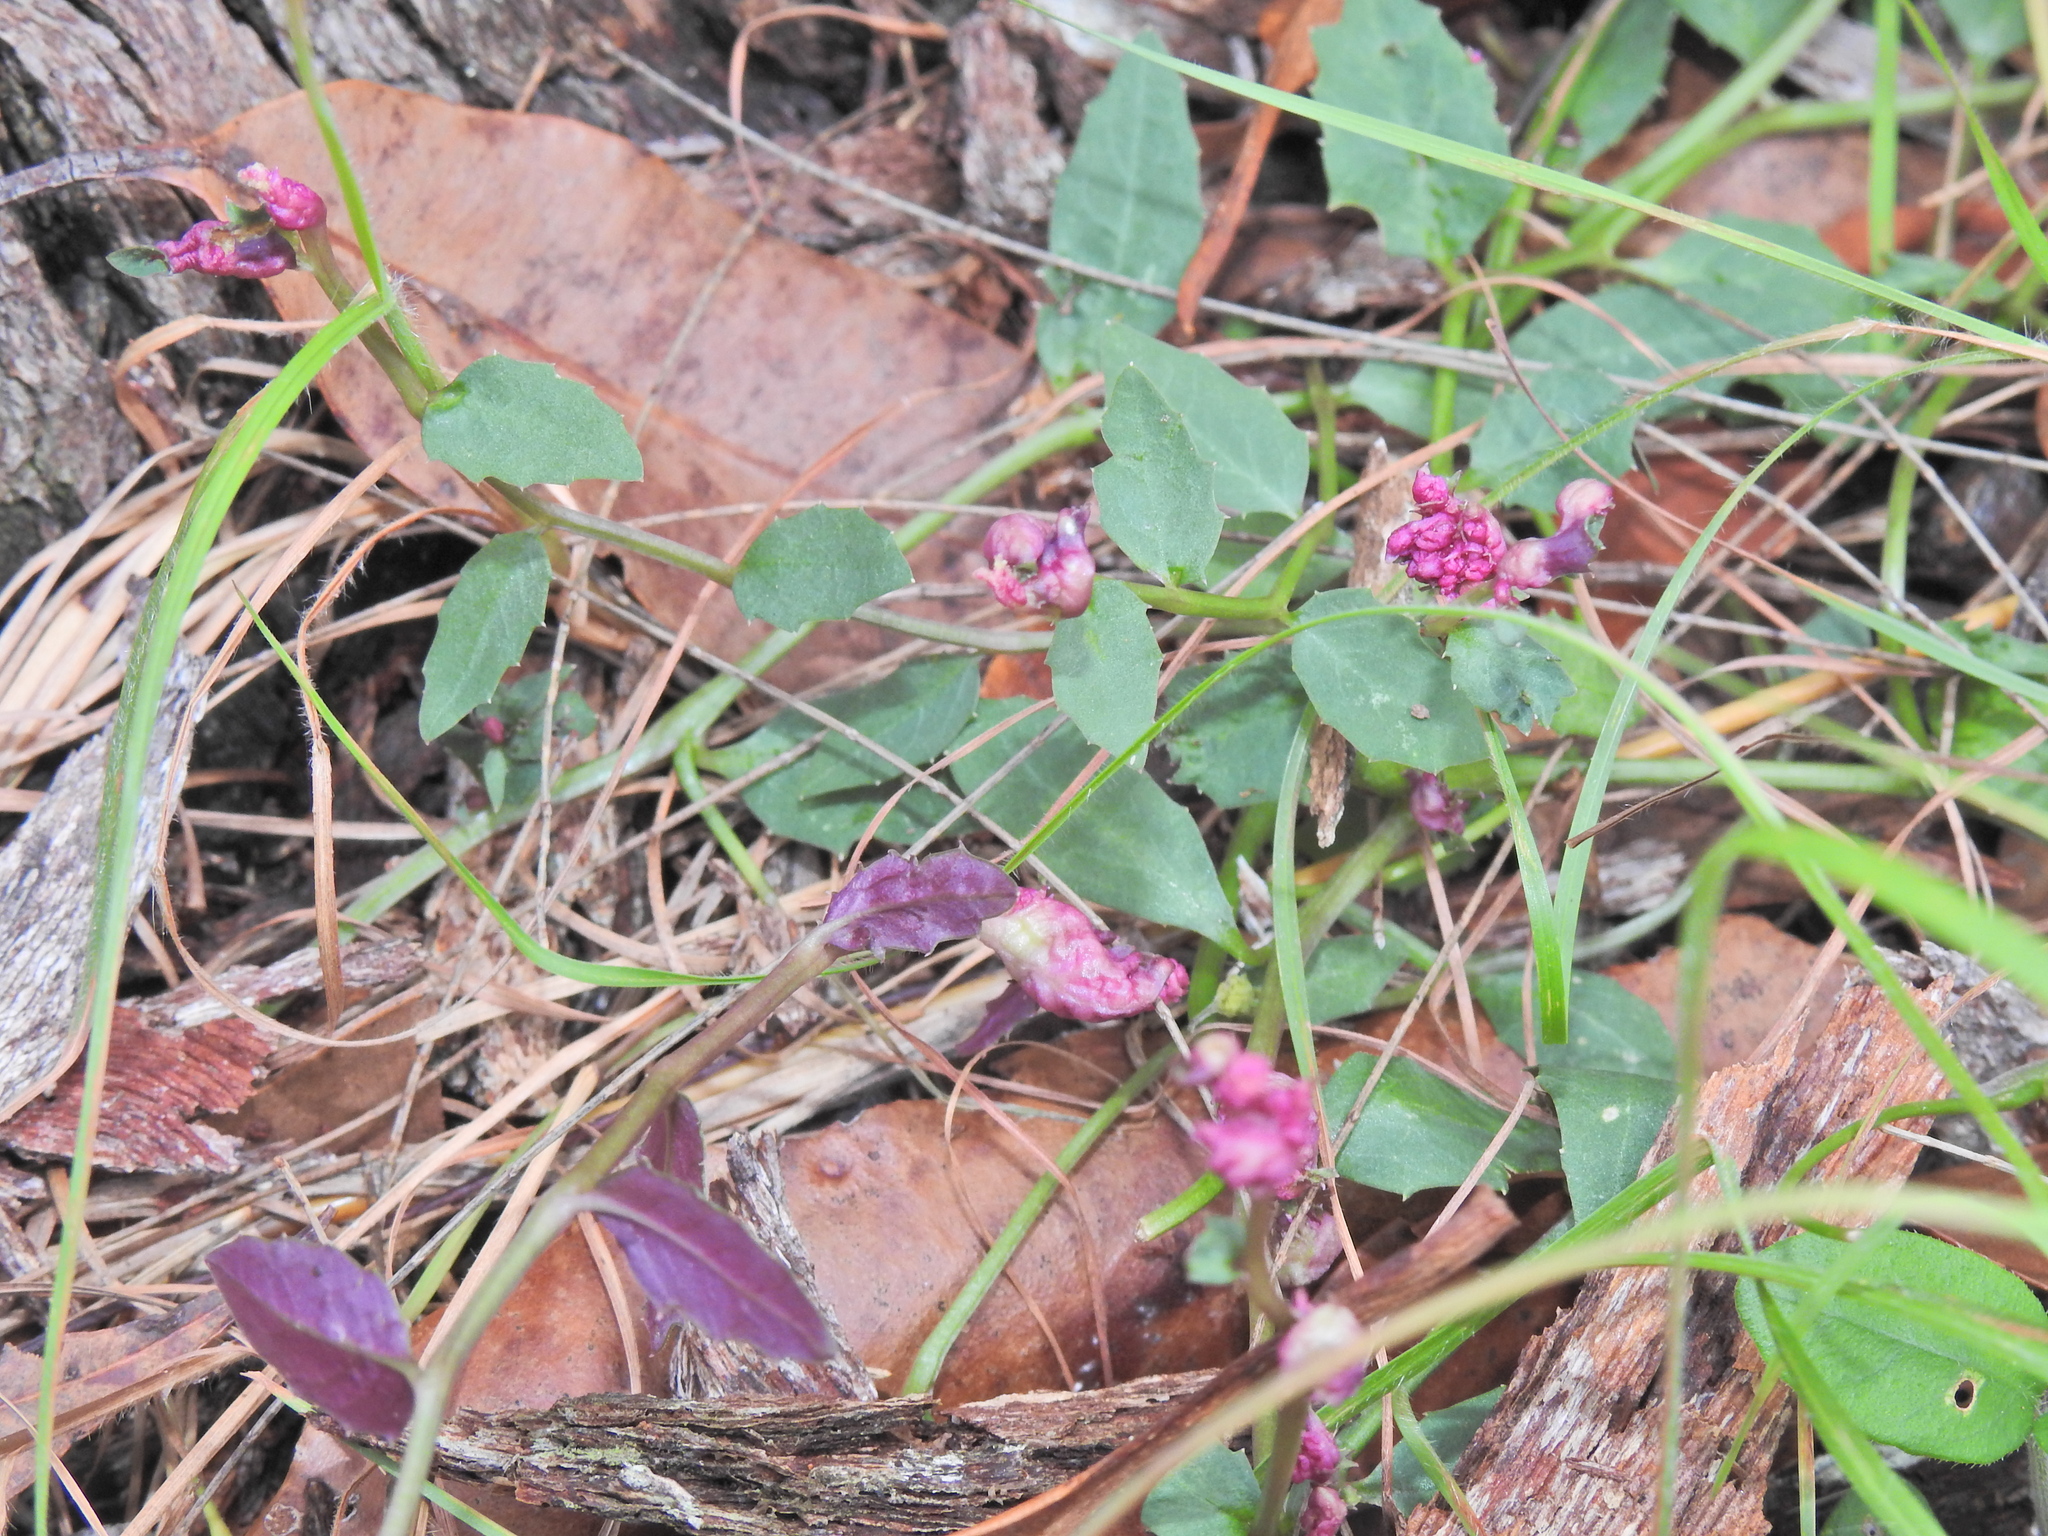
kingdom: Plantae
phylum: Tracheophyta
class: Magnoliopsida
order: Asterales
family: Campanulaceae
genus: Lobelia
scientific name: Lobelia purpurascens
